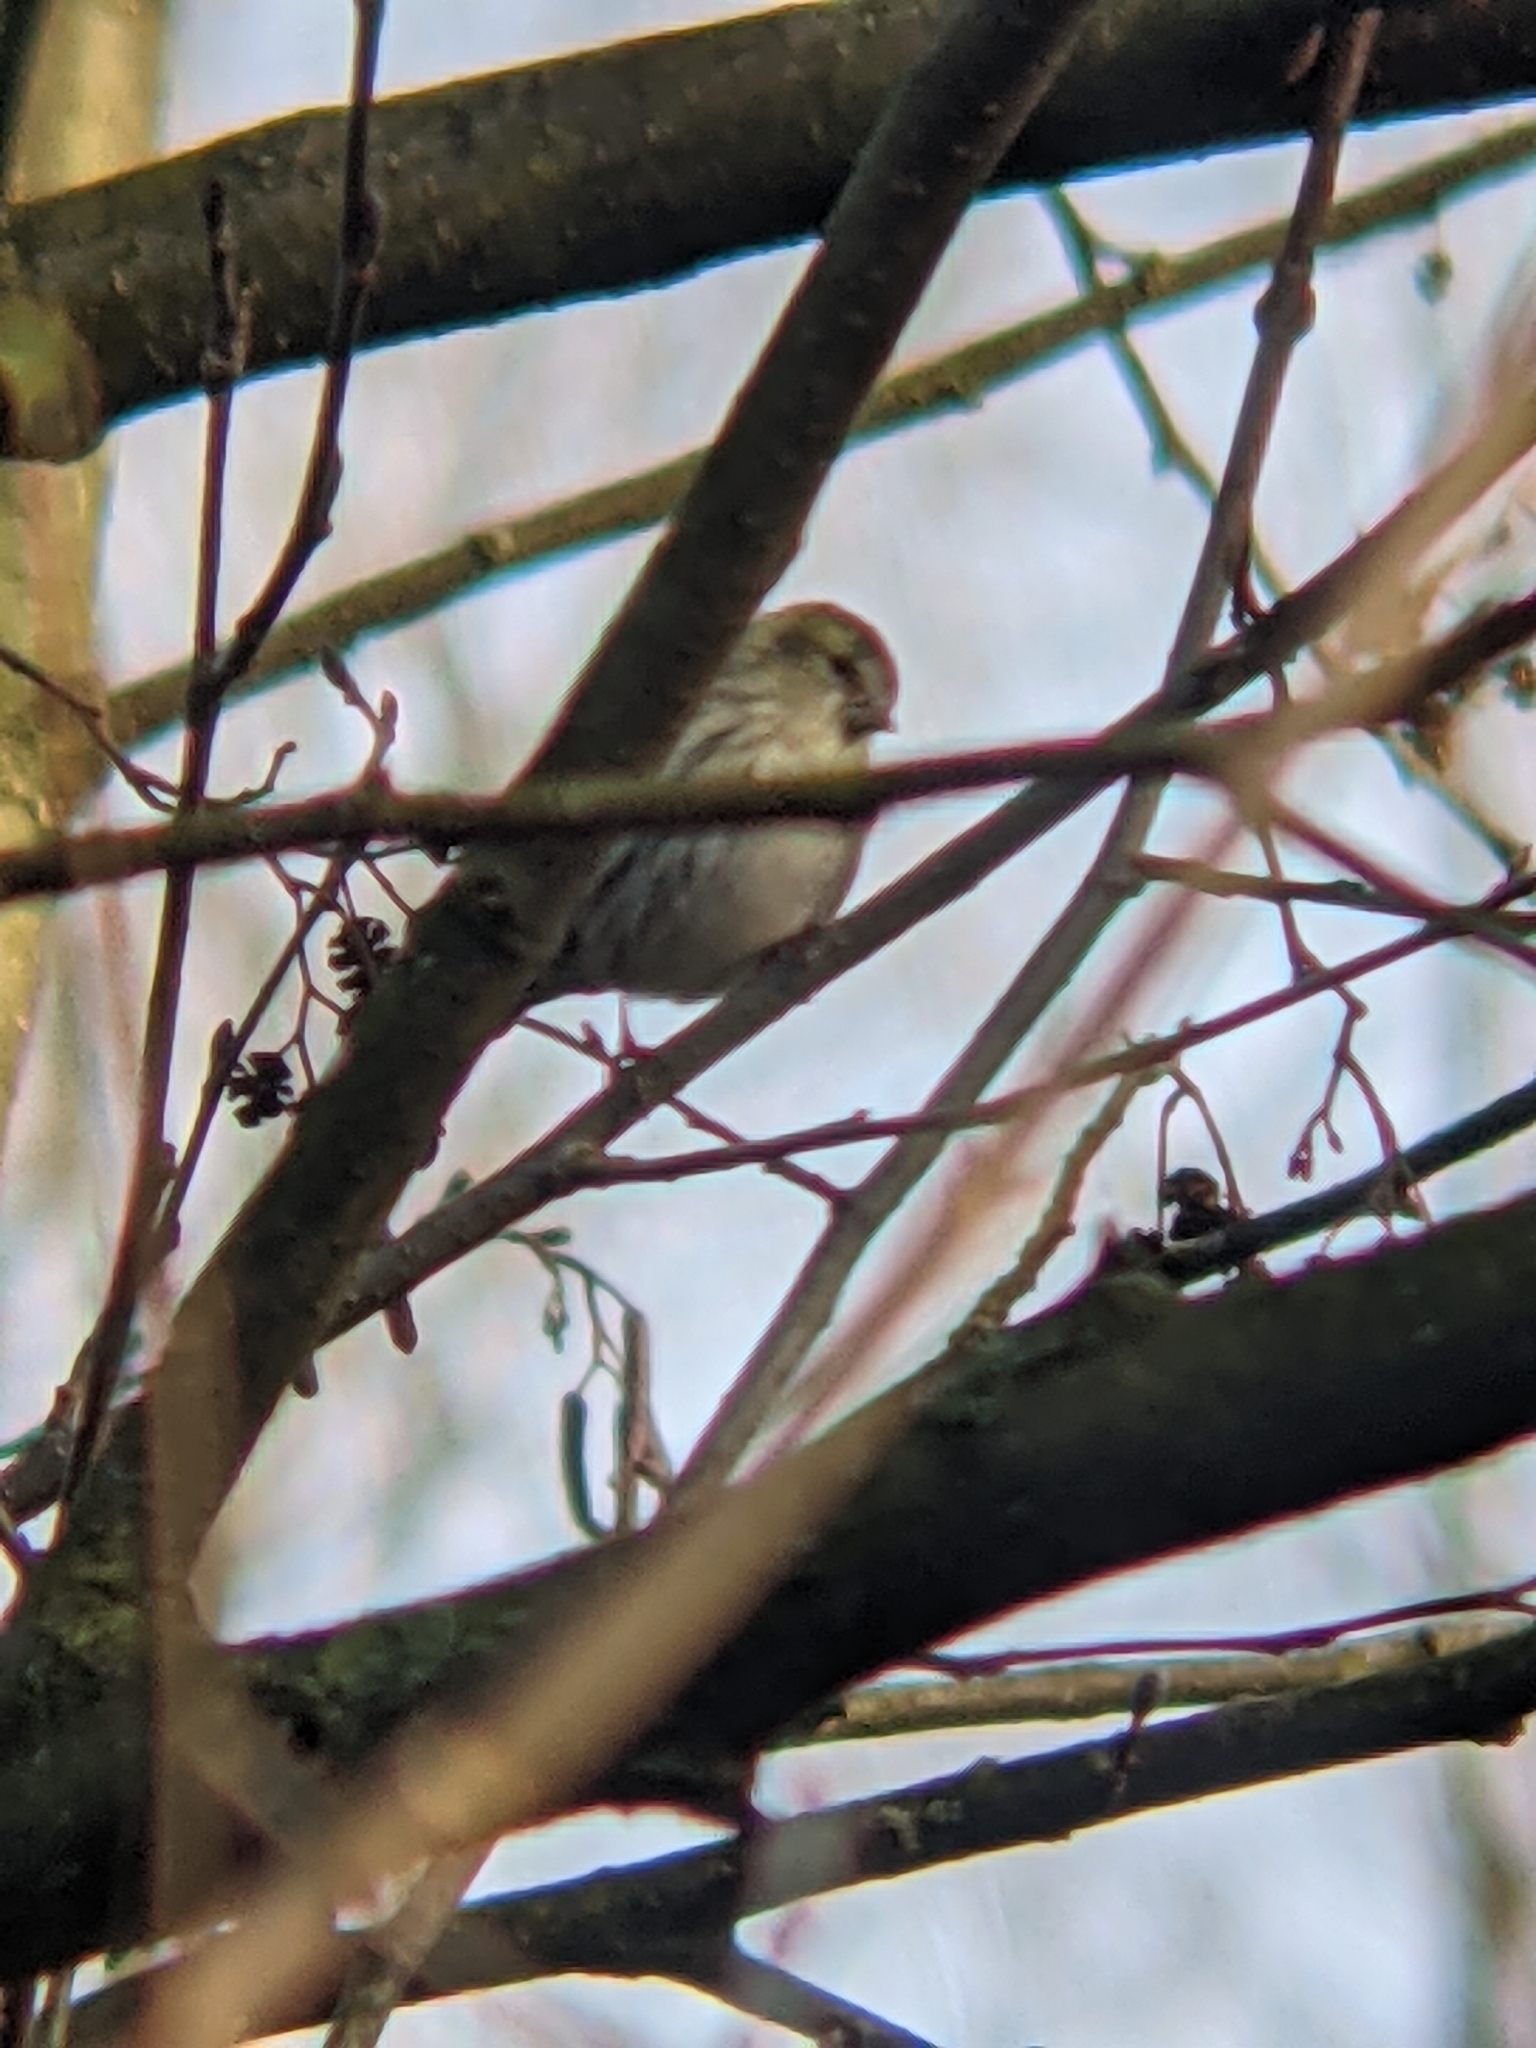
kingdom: Animalia
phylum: Chordata
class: Aves
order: Passeriformes
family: Fringillidae
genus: Spinus
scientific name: Spinus spinus
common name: Eurasian siskin
